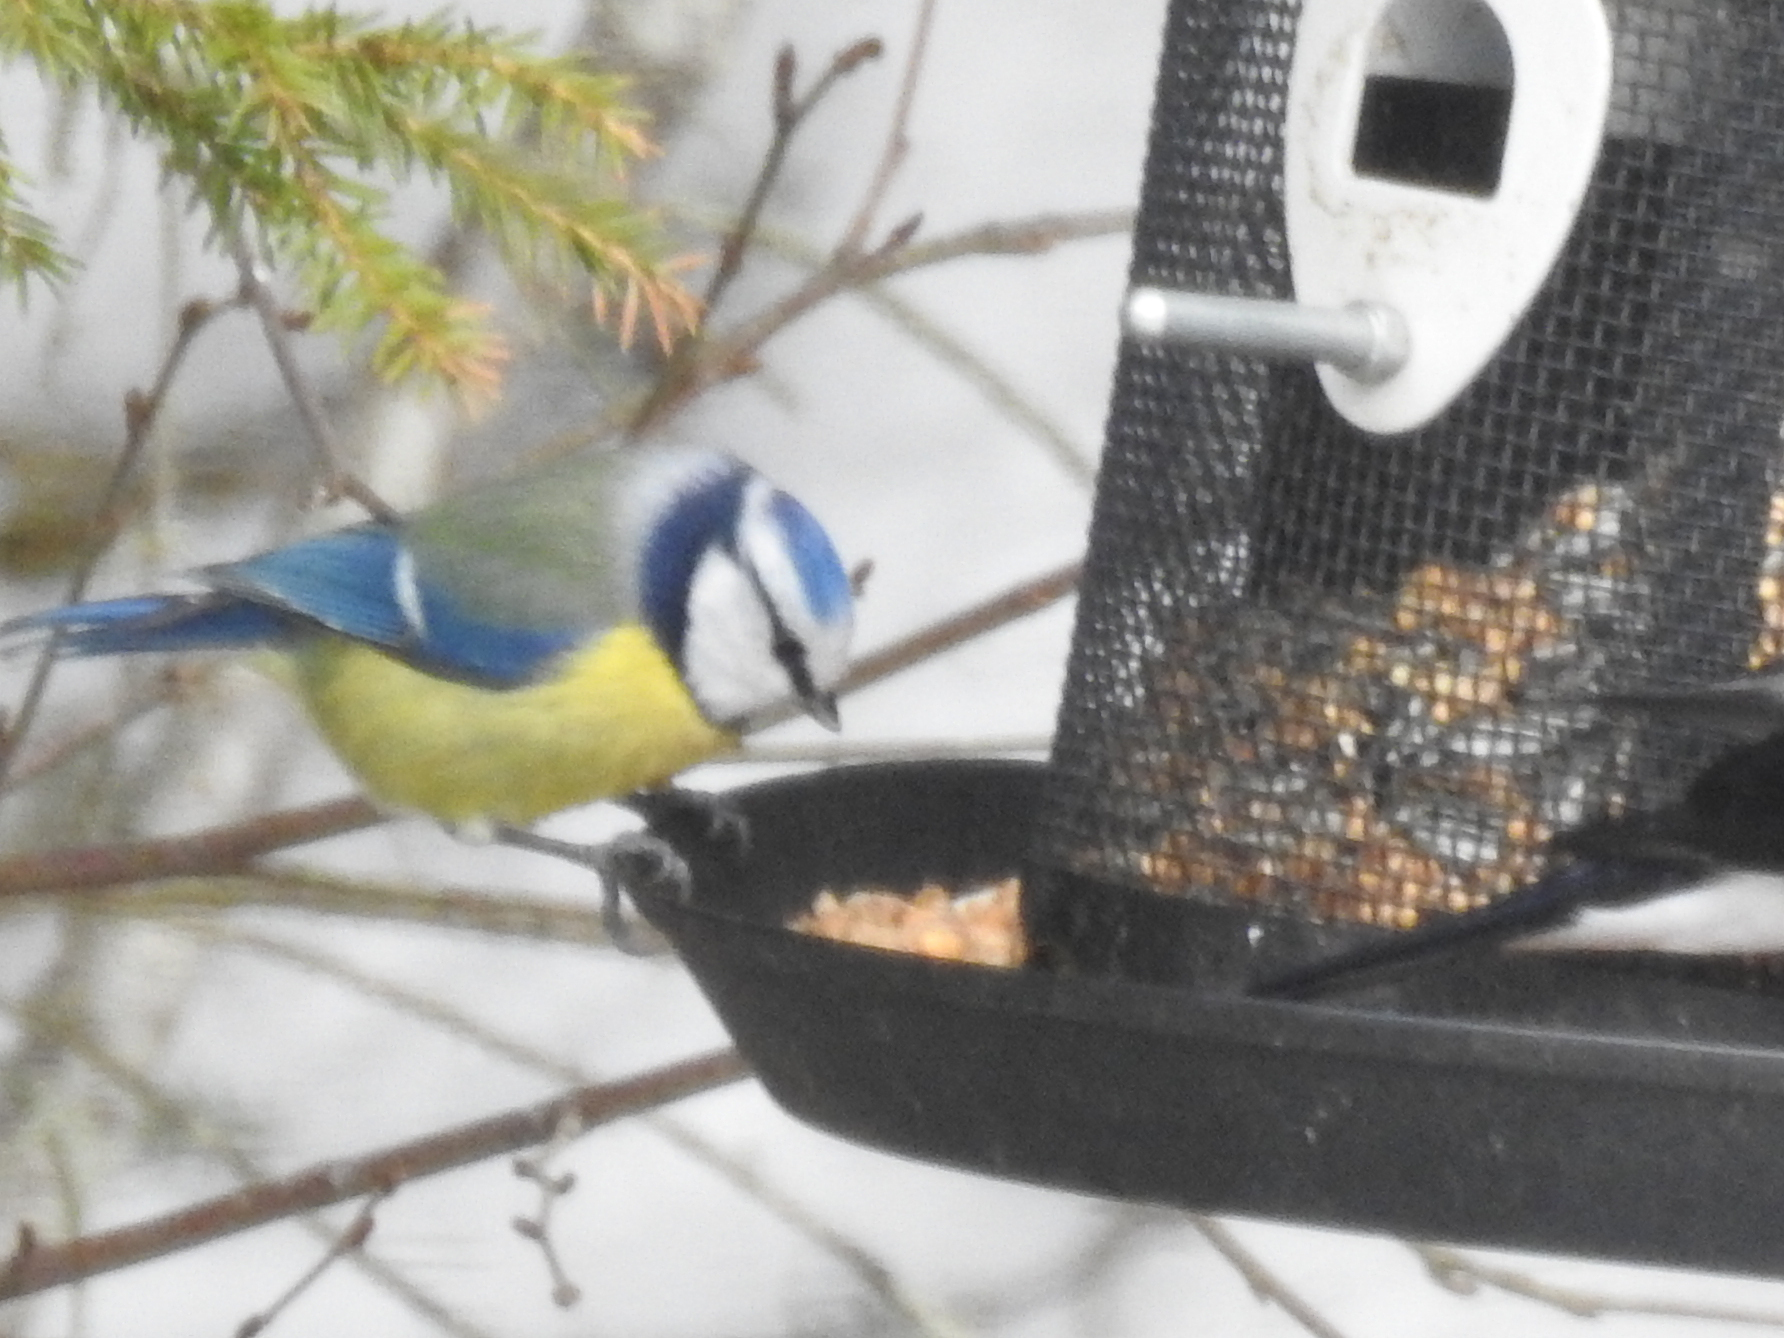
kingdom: Animalia
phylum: Chordata
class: Aves
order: Passeriformes
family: Paridae
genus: Cyanistes
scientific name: Cyanistes caeruleus
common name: Eurasian blue tit
